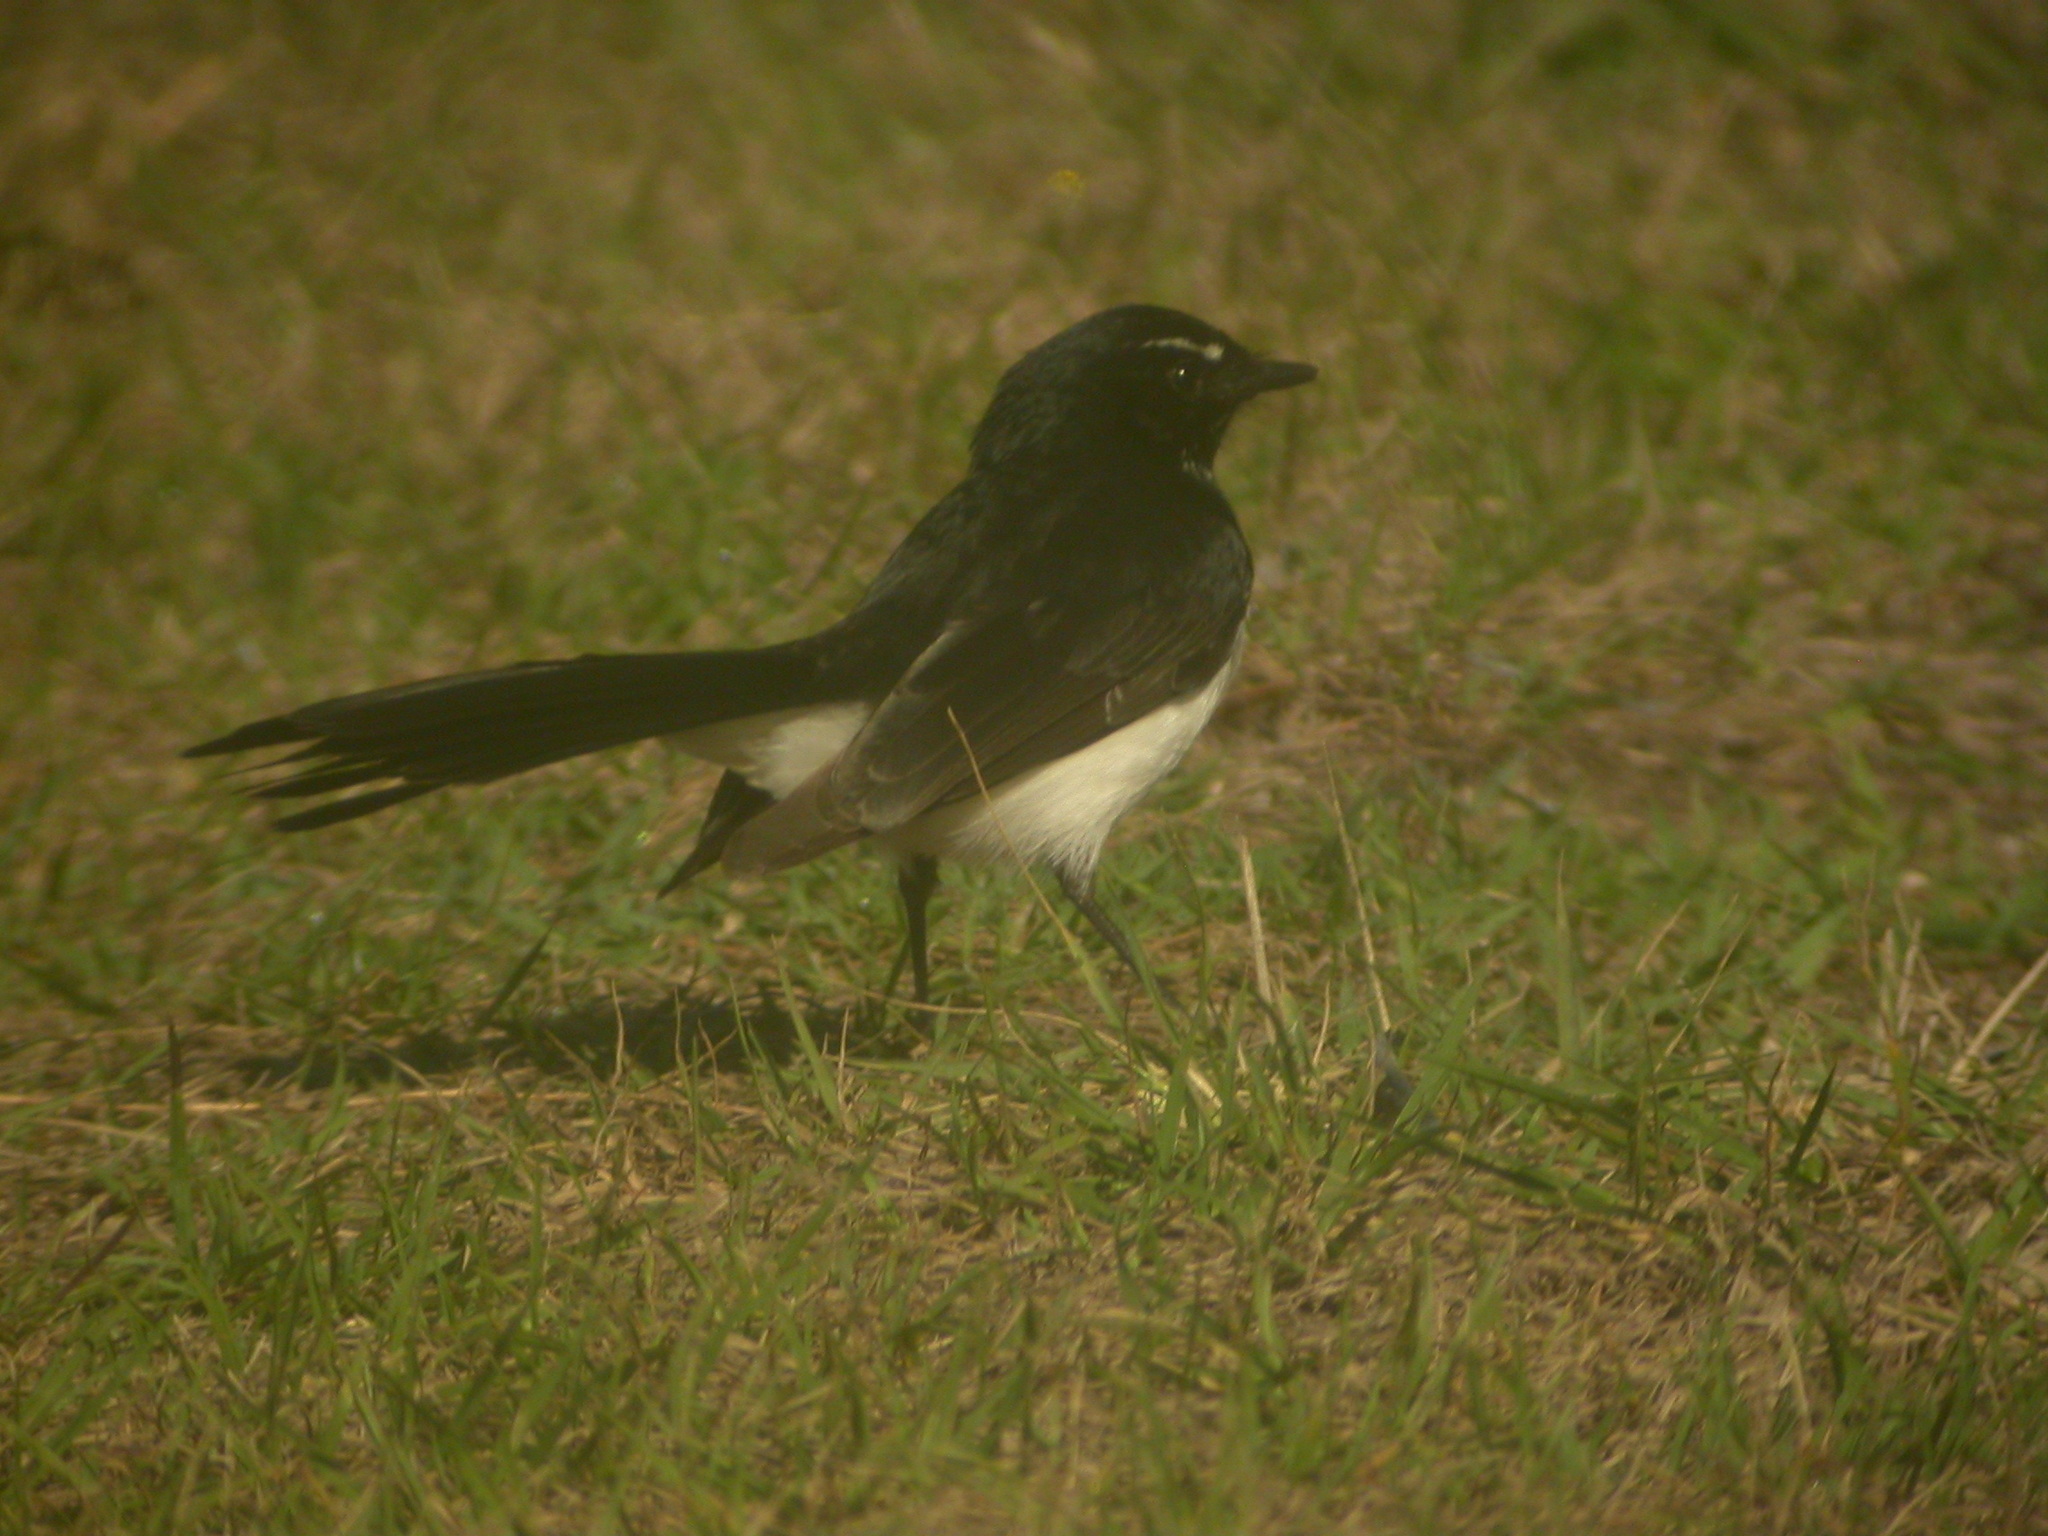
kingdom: Animalia
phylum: Chordata
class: Aves
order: Passeriformes
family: Rhipiduridae
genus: Rhipidura
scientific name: Rhipidura leucophrys
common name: Willie wagtail
